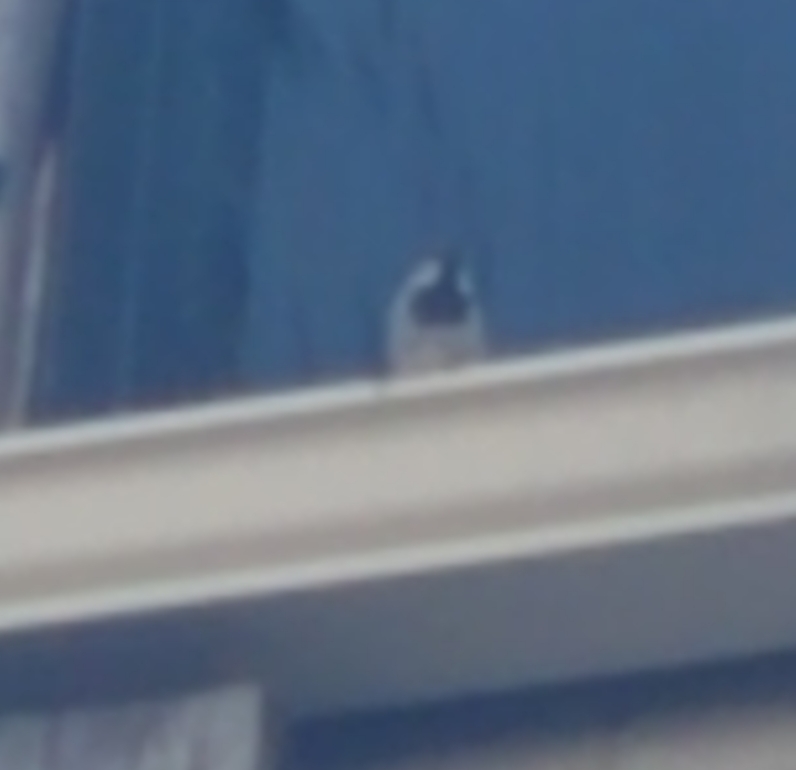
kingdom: Animalia
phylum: Chordata
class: Aves
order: Passeriformes
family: Passeridae
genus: Passer
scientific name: Passer domesticus
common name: House sparrow
